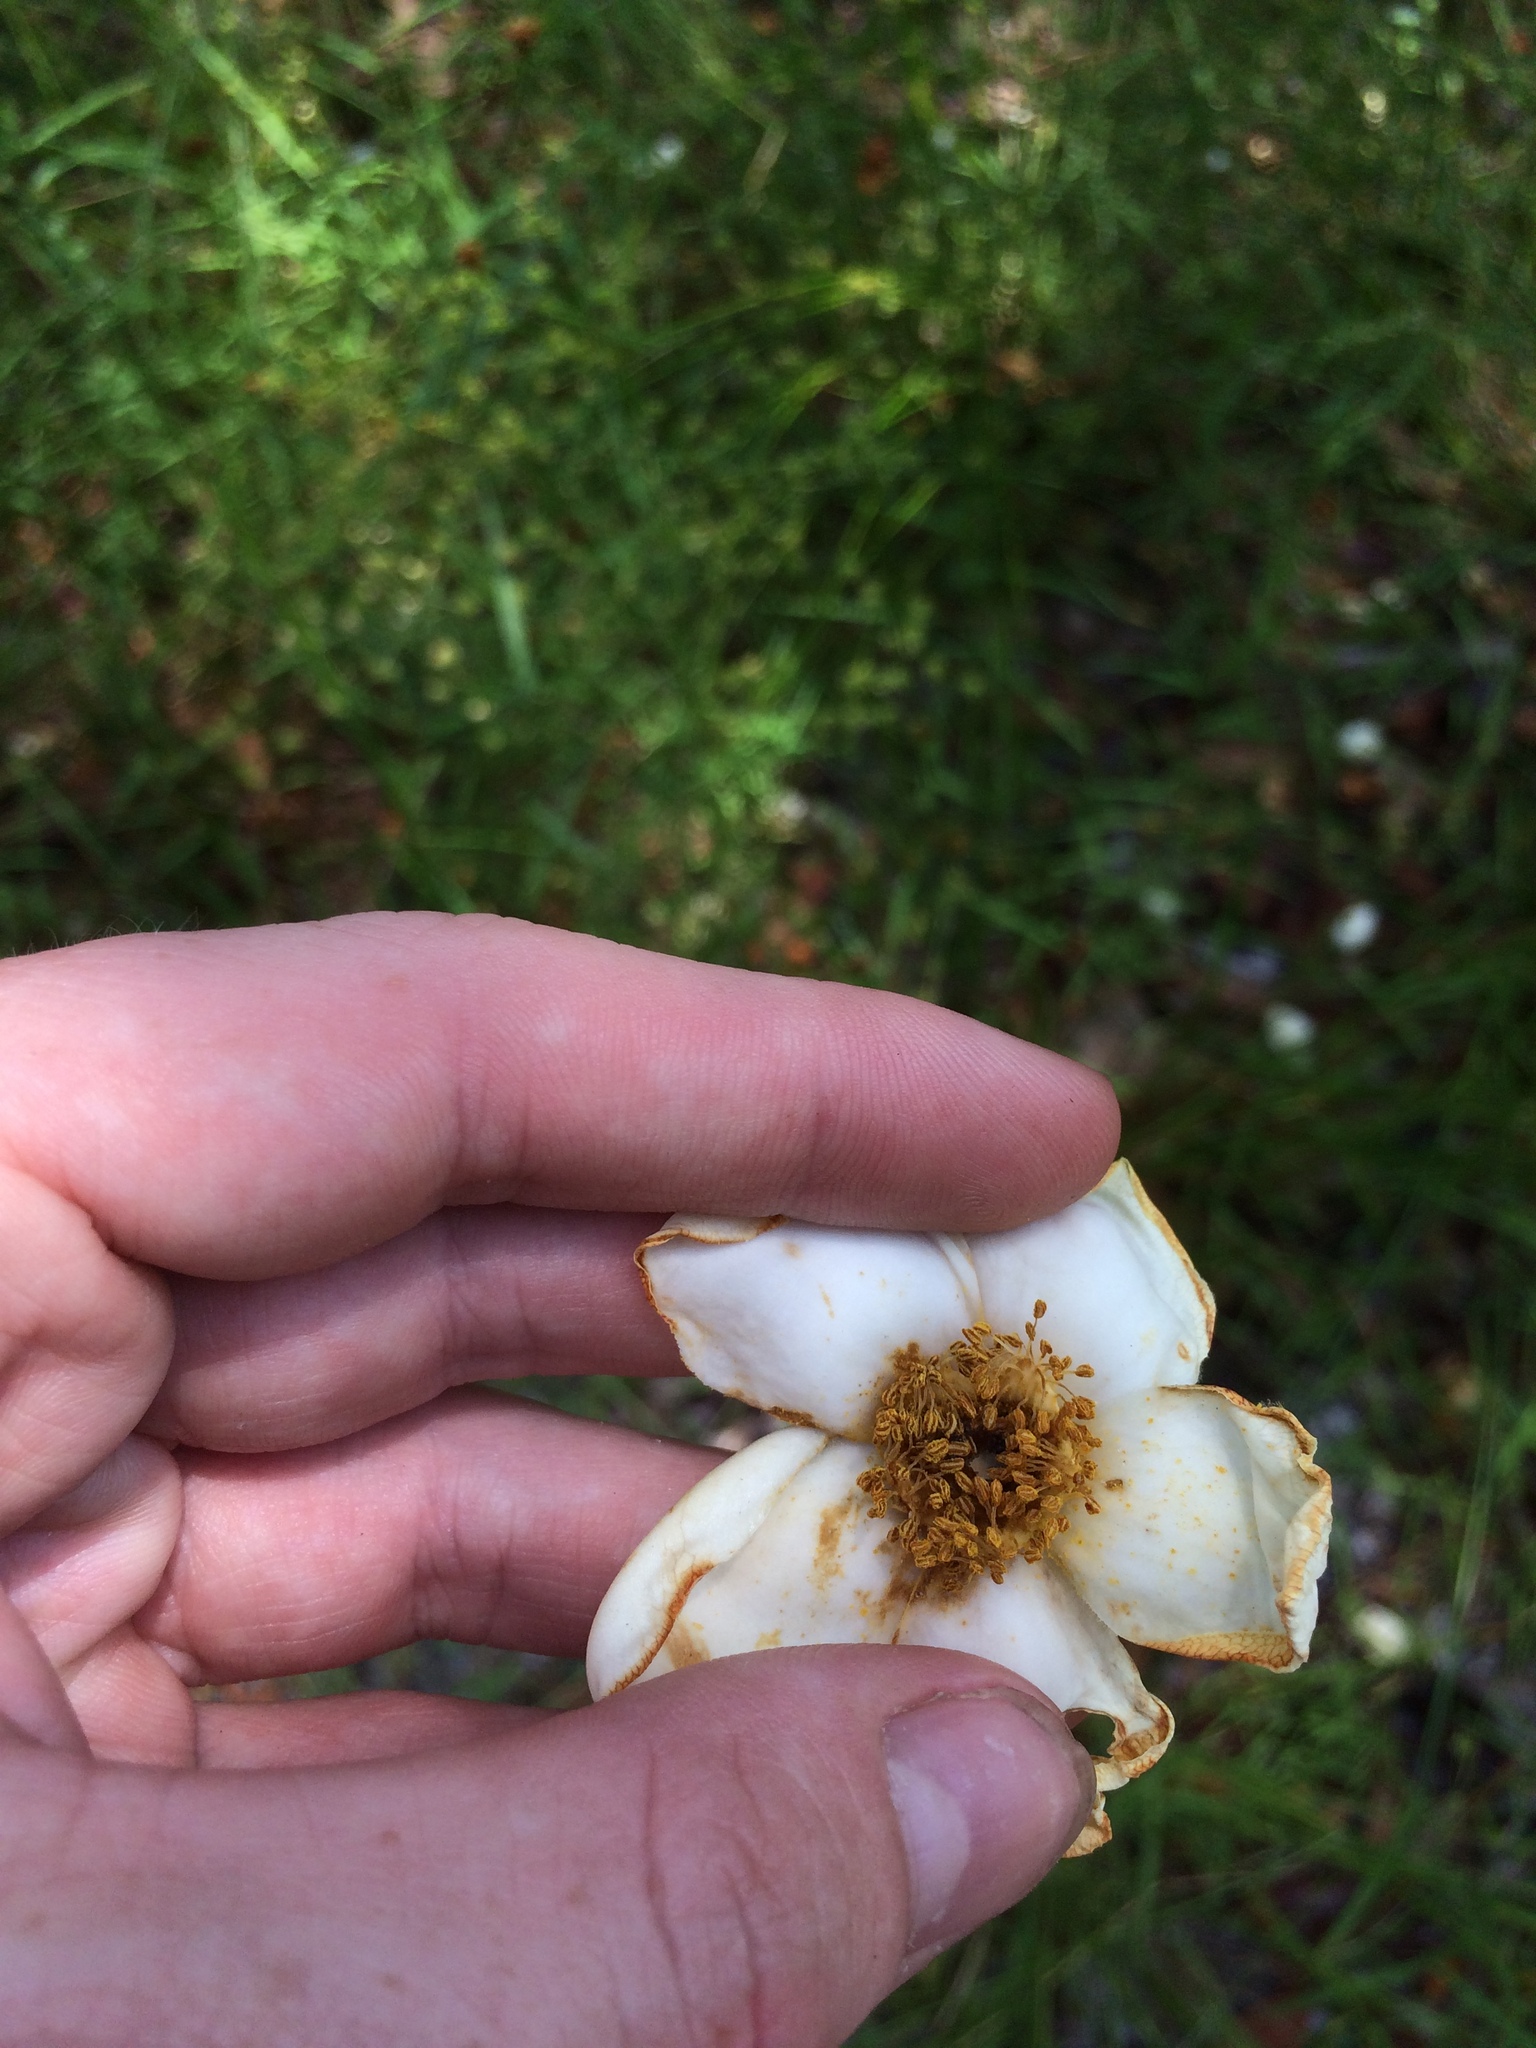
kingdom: Plantae
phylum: Tracheophyta
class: Magnoliopsida
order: Ericales
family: Theaceae
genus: Gordonia
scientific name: Gordonia lasianthus
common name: Loblolly bay
